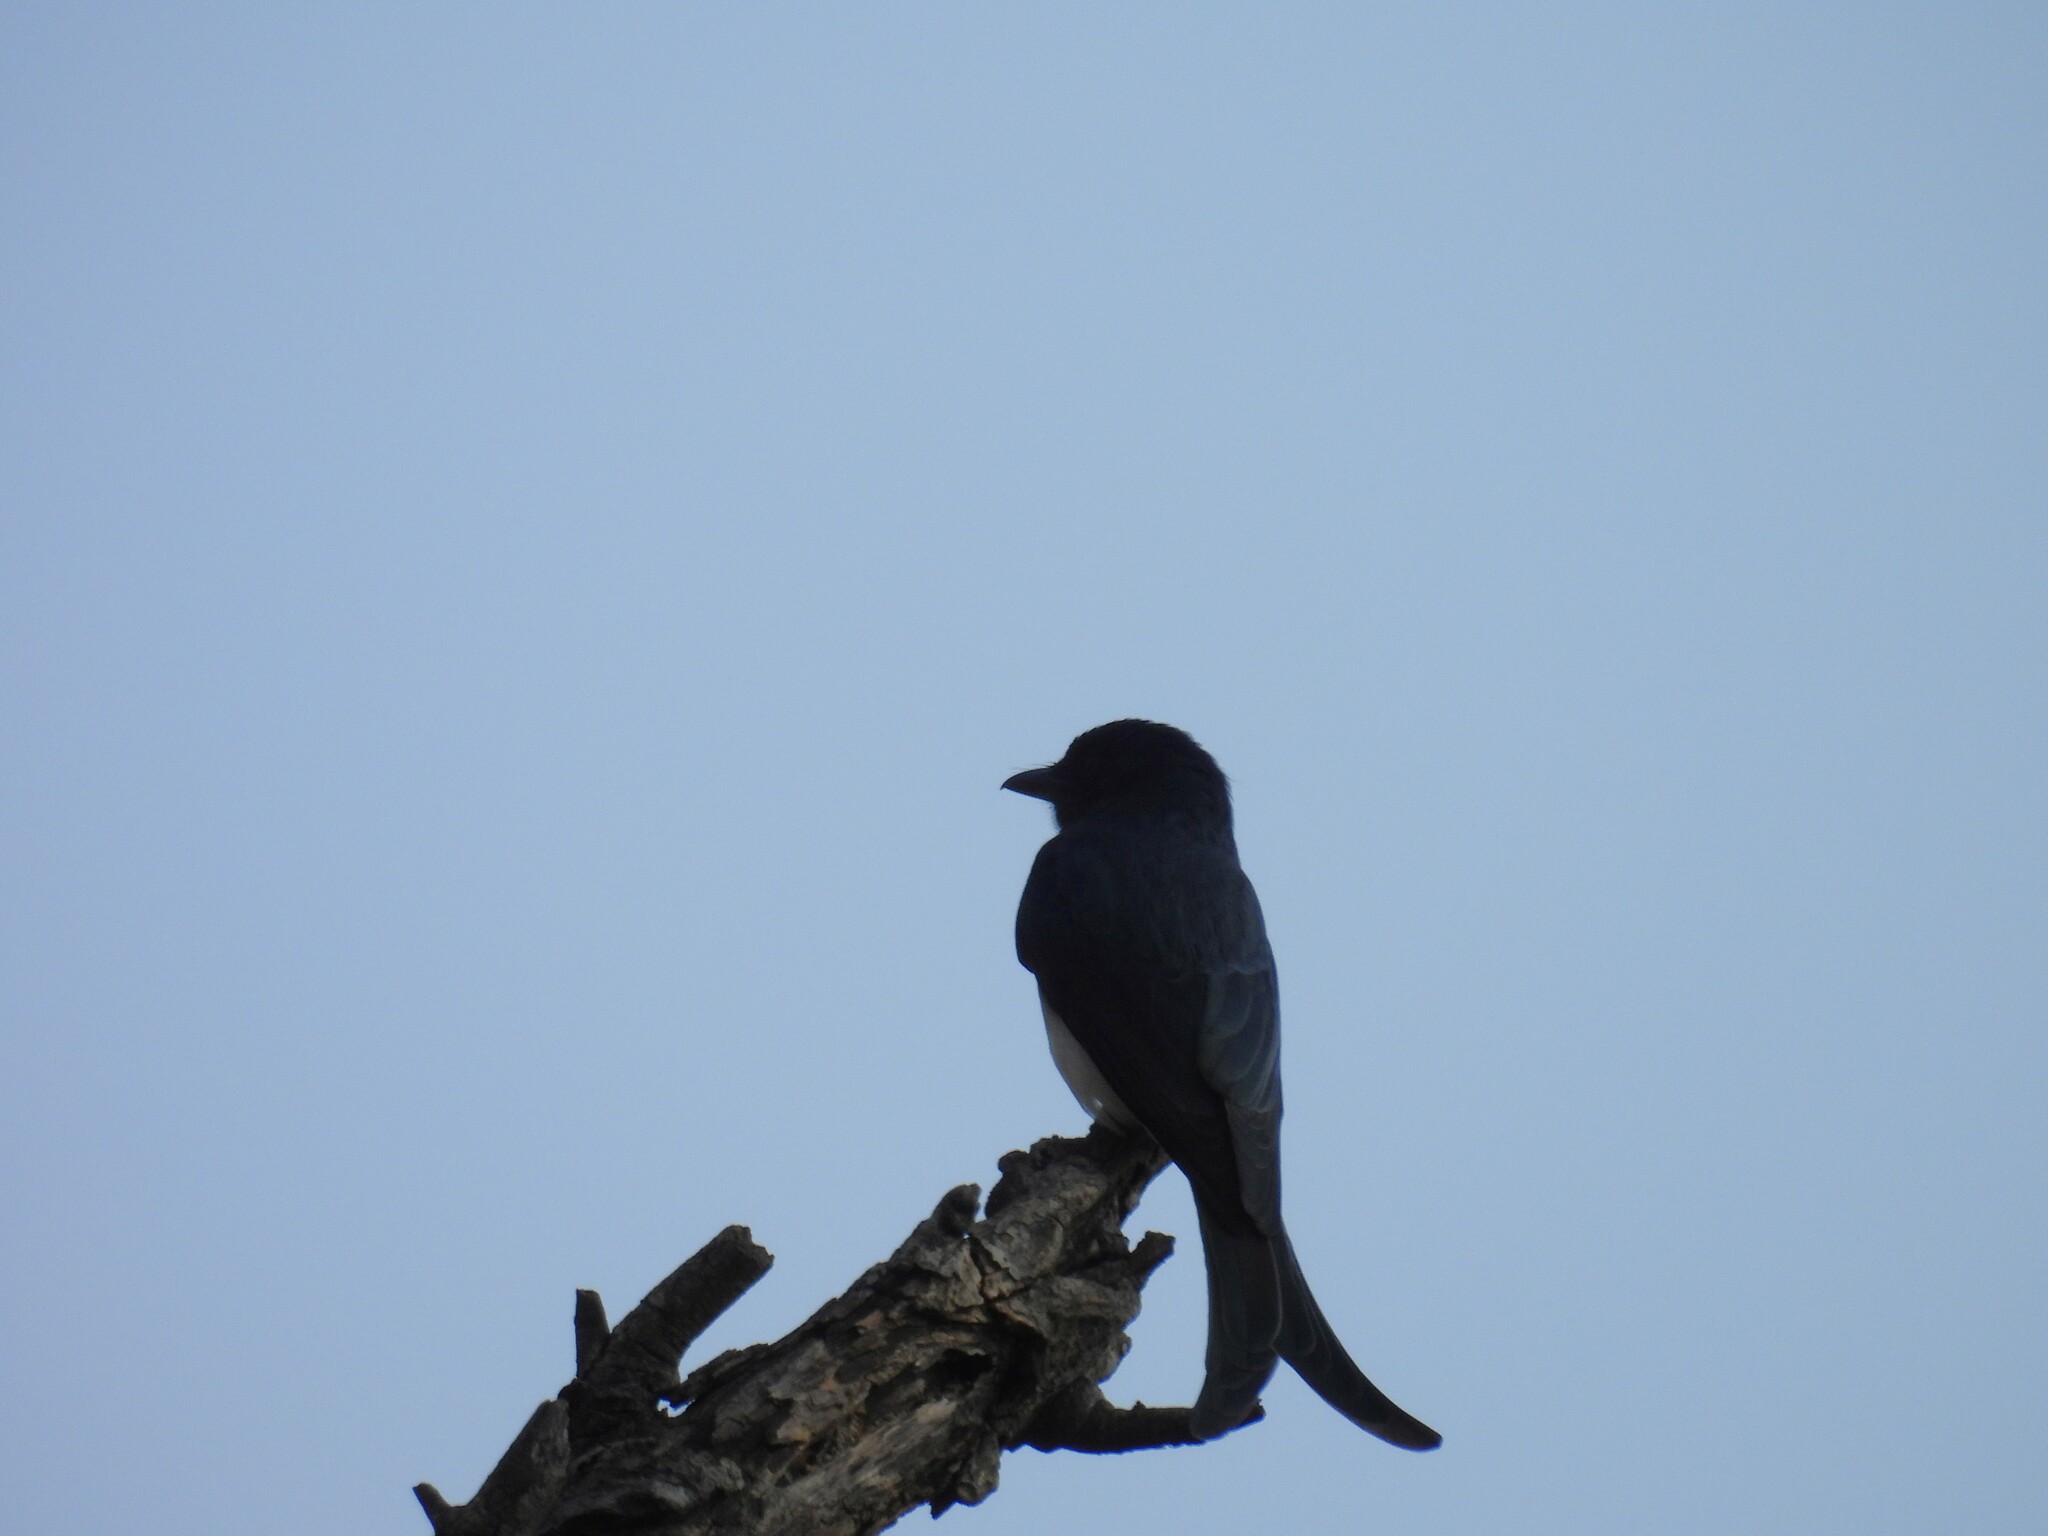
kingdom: Animalia
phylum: Chordata
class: Aves
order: Passeriformes
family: Dicruridae
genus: Dicrurus
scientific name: Dicrurus caerulescens
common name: White-bellied drongo
